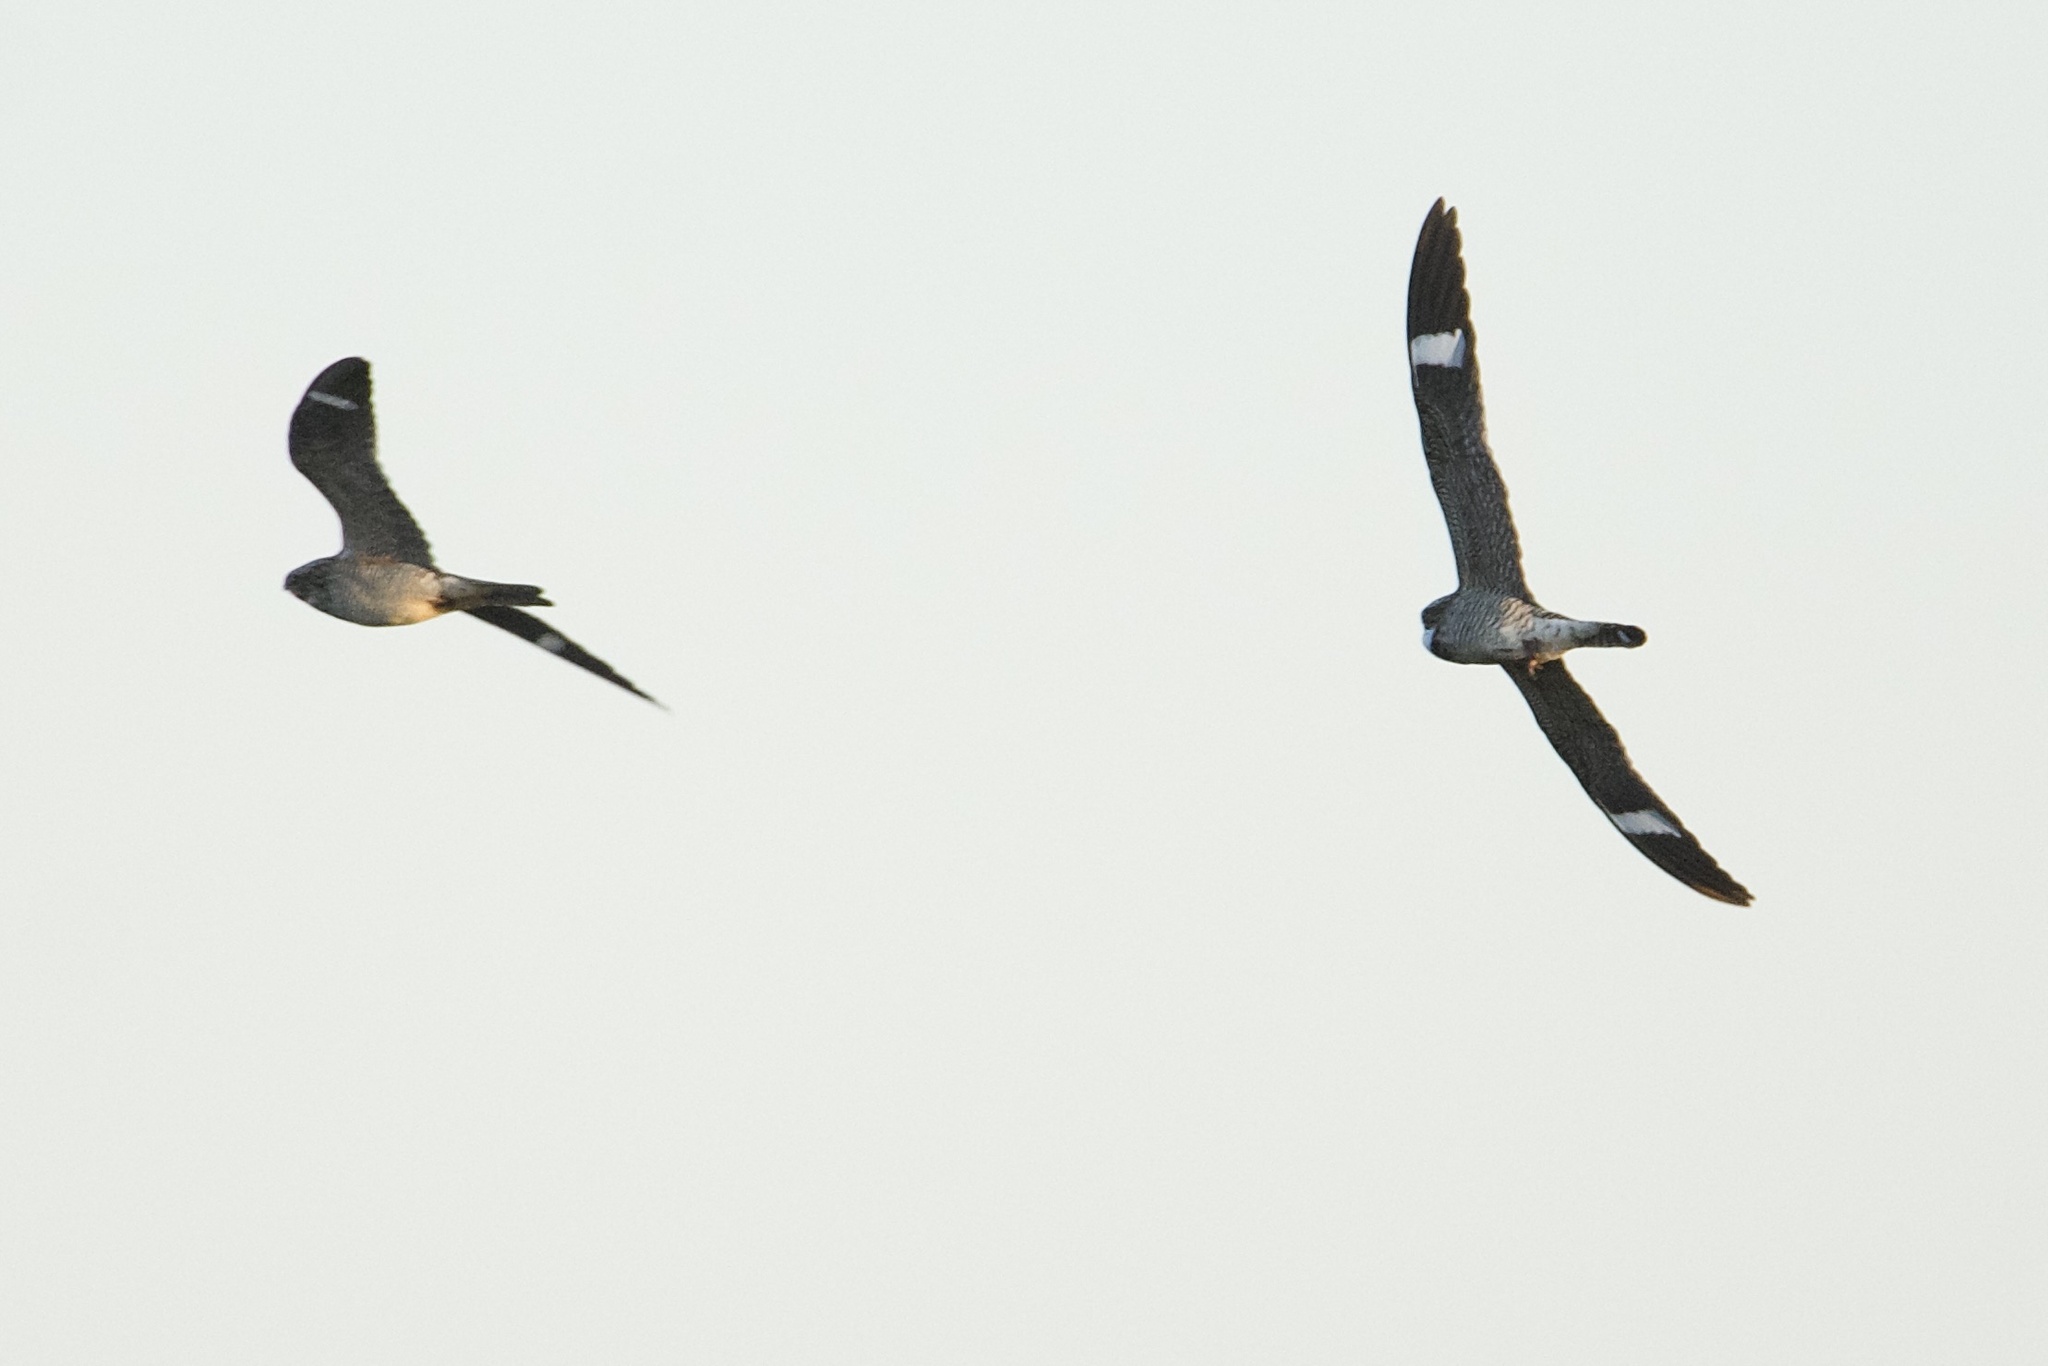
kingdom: Animalia
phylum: Chordata
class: Aves
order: Caprimulgiformes
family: Caprimulgidae
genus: Chordeiles
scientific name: Chordeiles minor
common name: Common nighthawk
